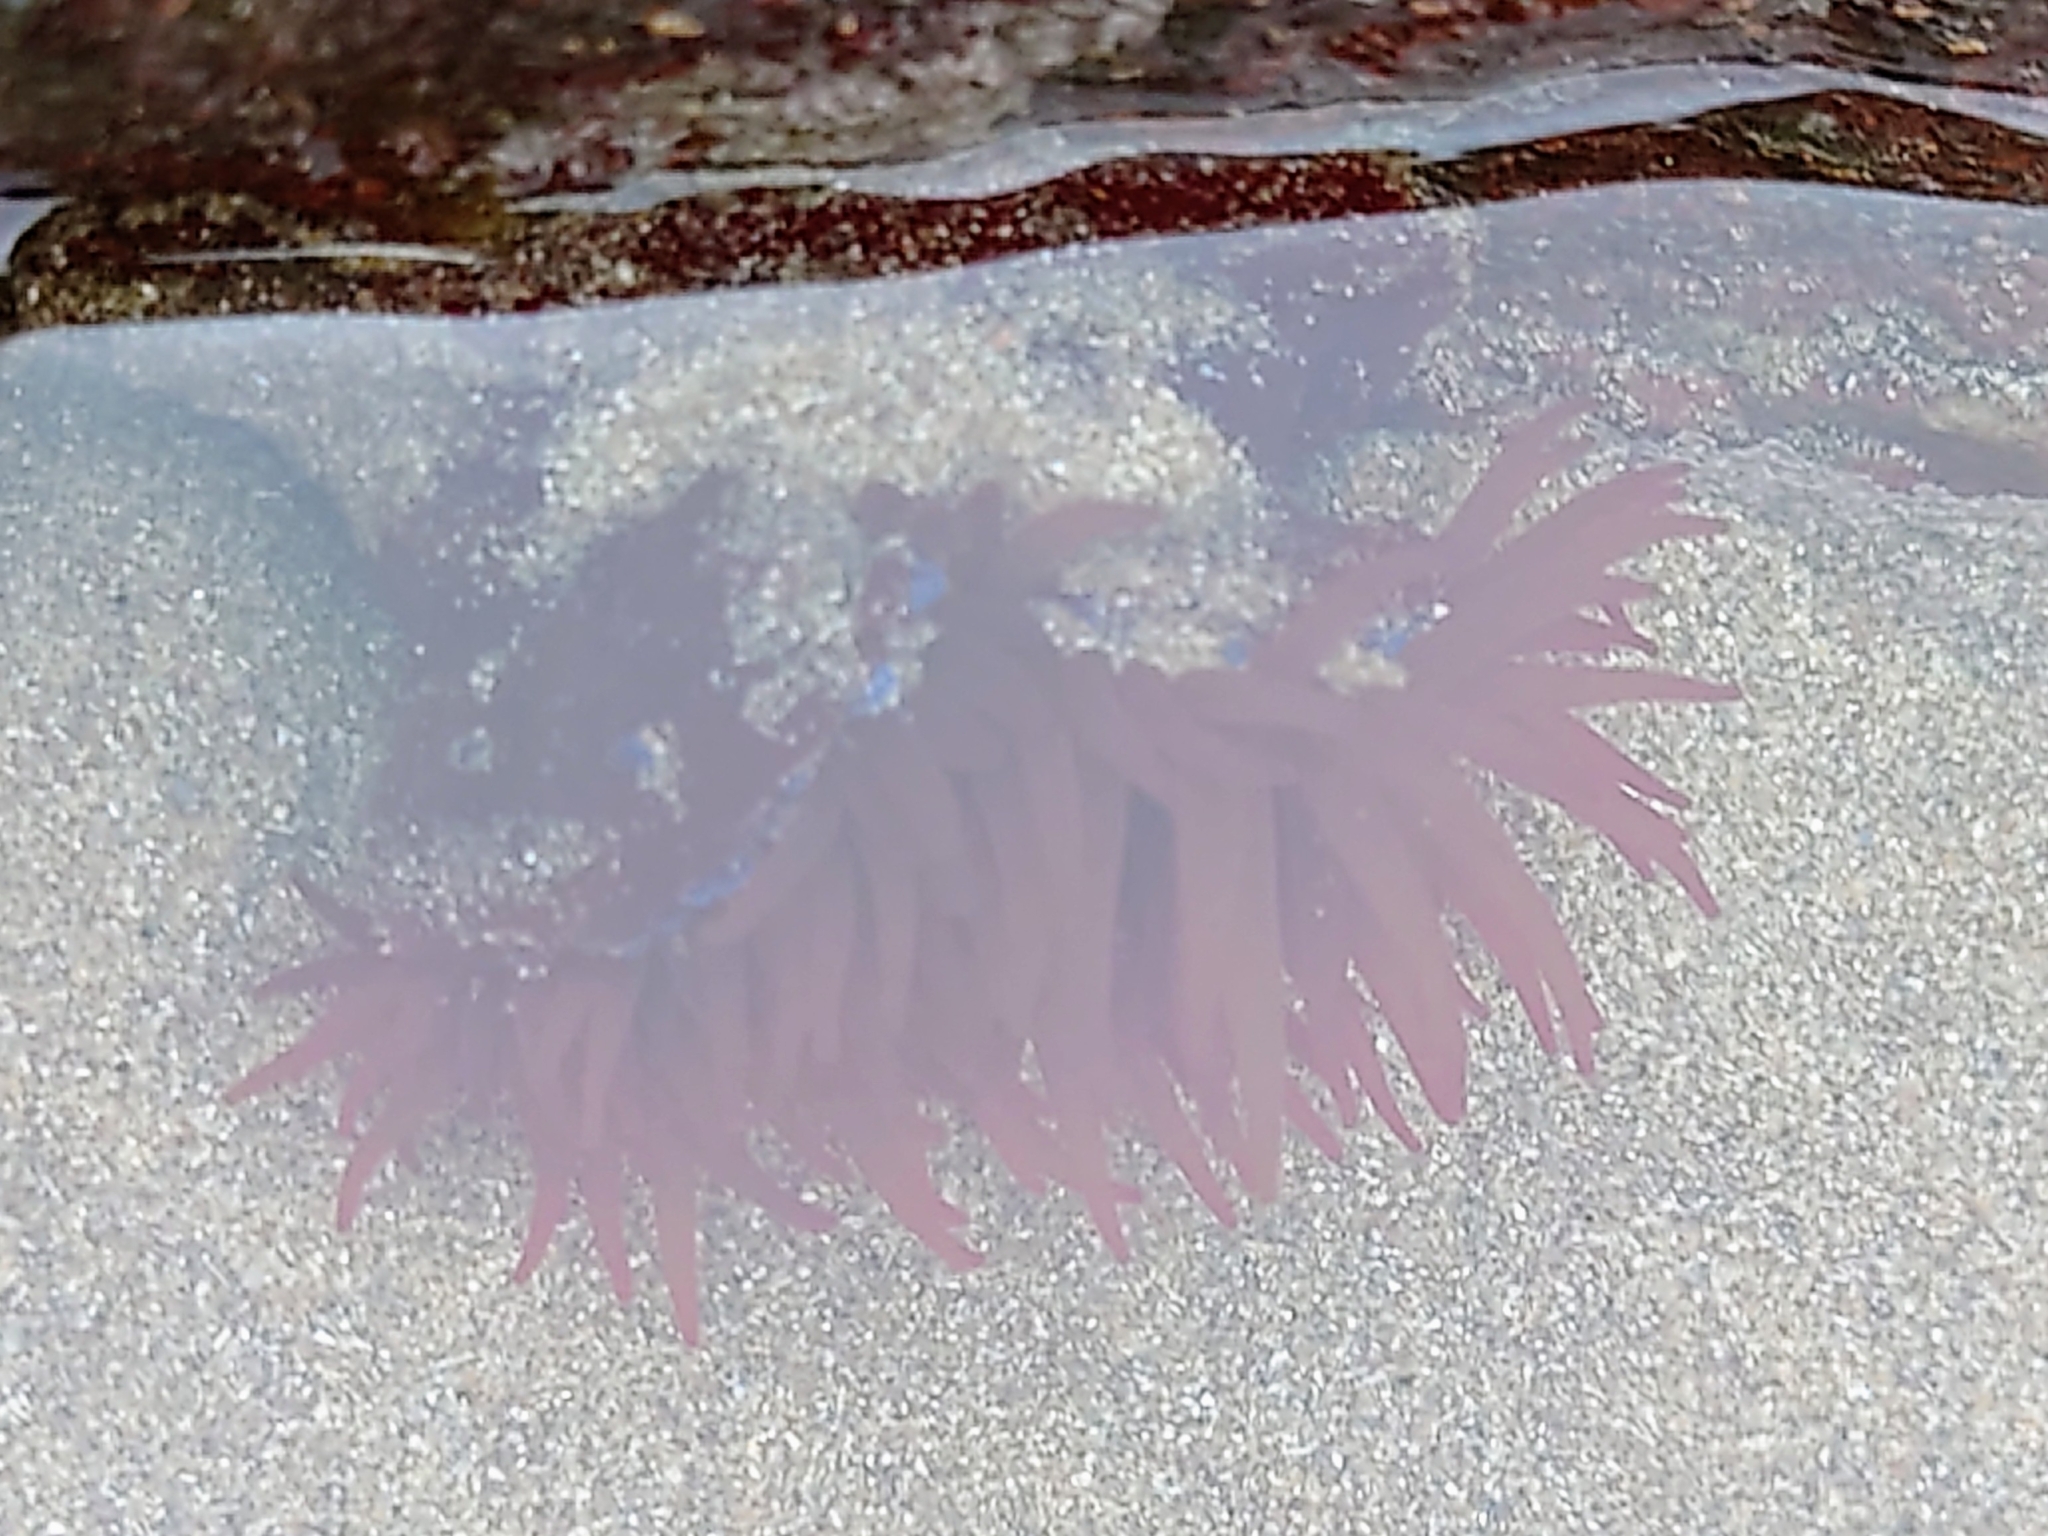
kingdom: Animalia
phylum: Cnidaria
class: Anthozoa
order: Actiniaria
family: Actiniidae
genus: Actinia
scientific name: Actinia equina
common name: Beadlet anemone
